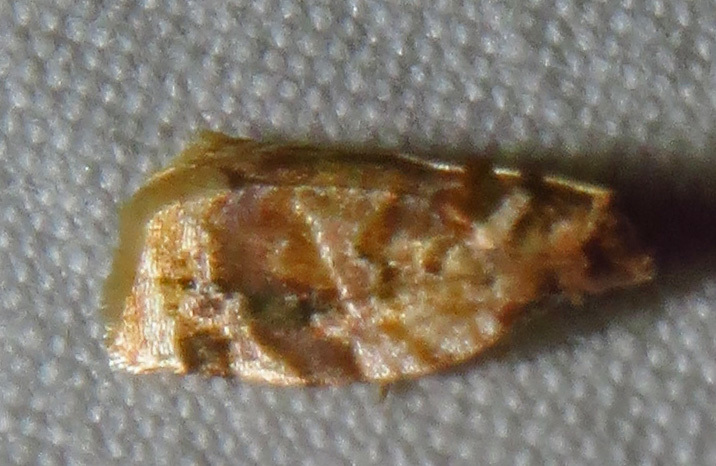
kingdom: Animalia
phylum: Arthropoda
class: Insecta
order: Lepidoptera
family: Tortricidae
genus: Argyrotaenia
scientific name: Argyrotaenia velutinana
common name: Red-banded leafroller moth
